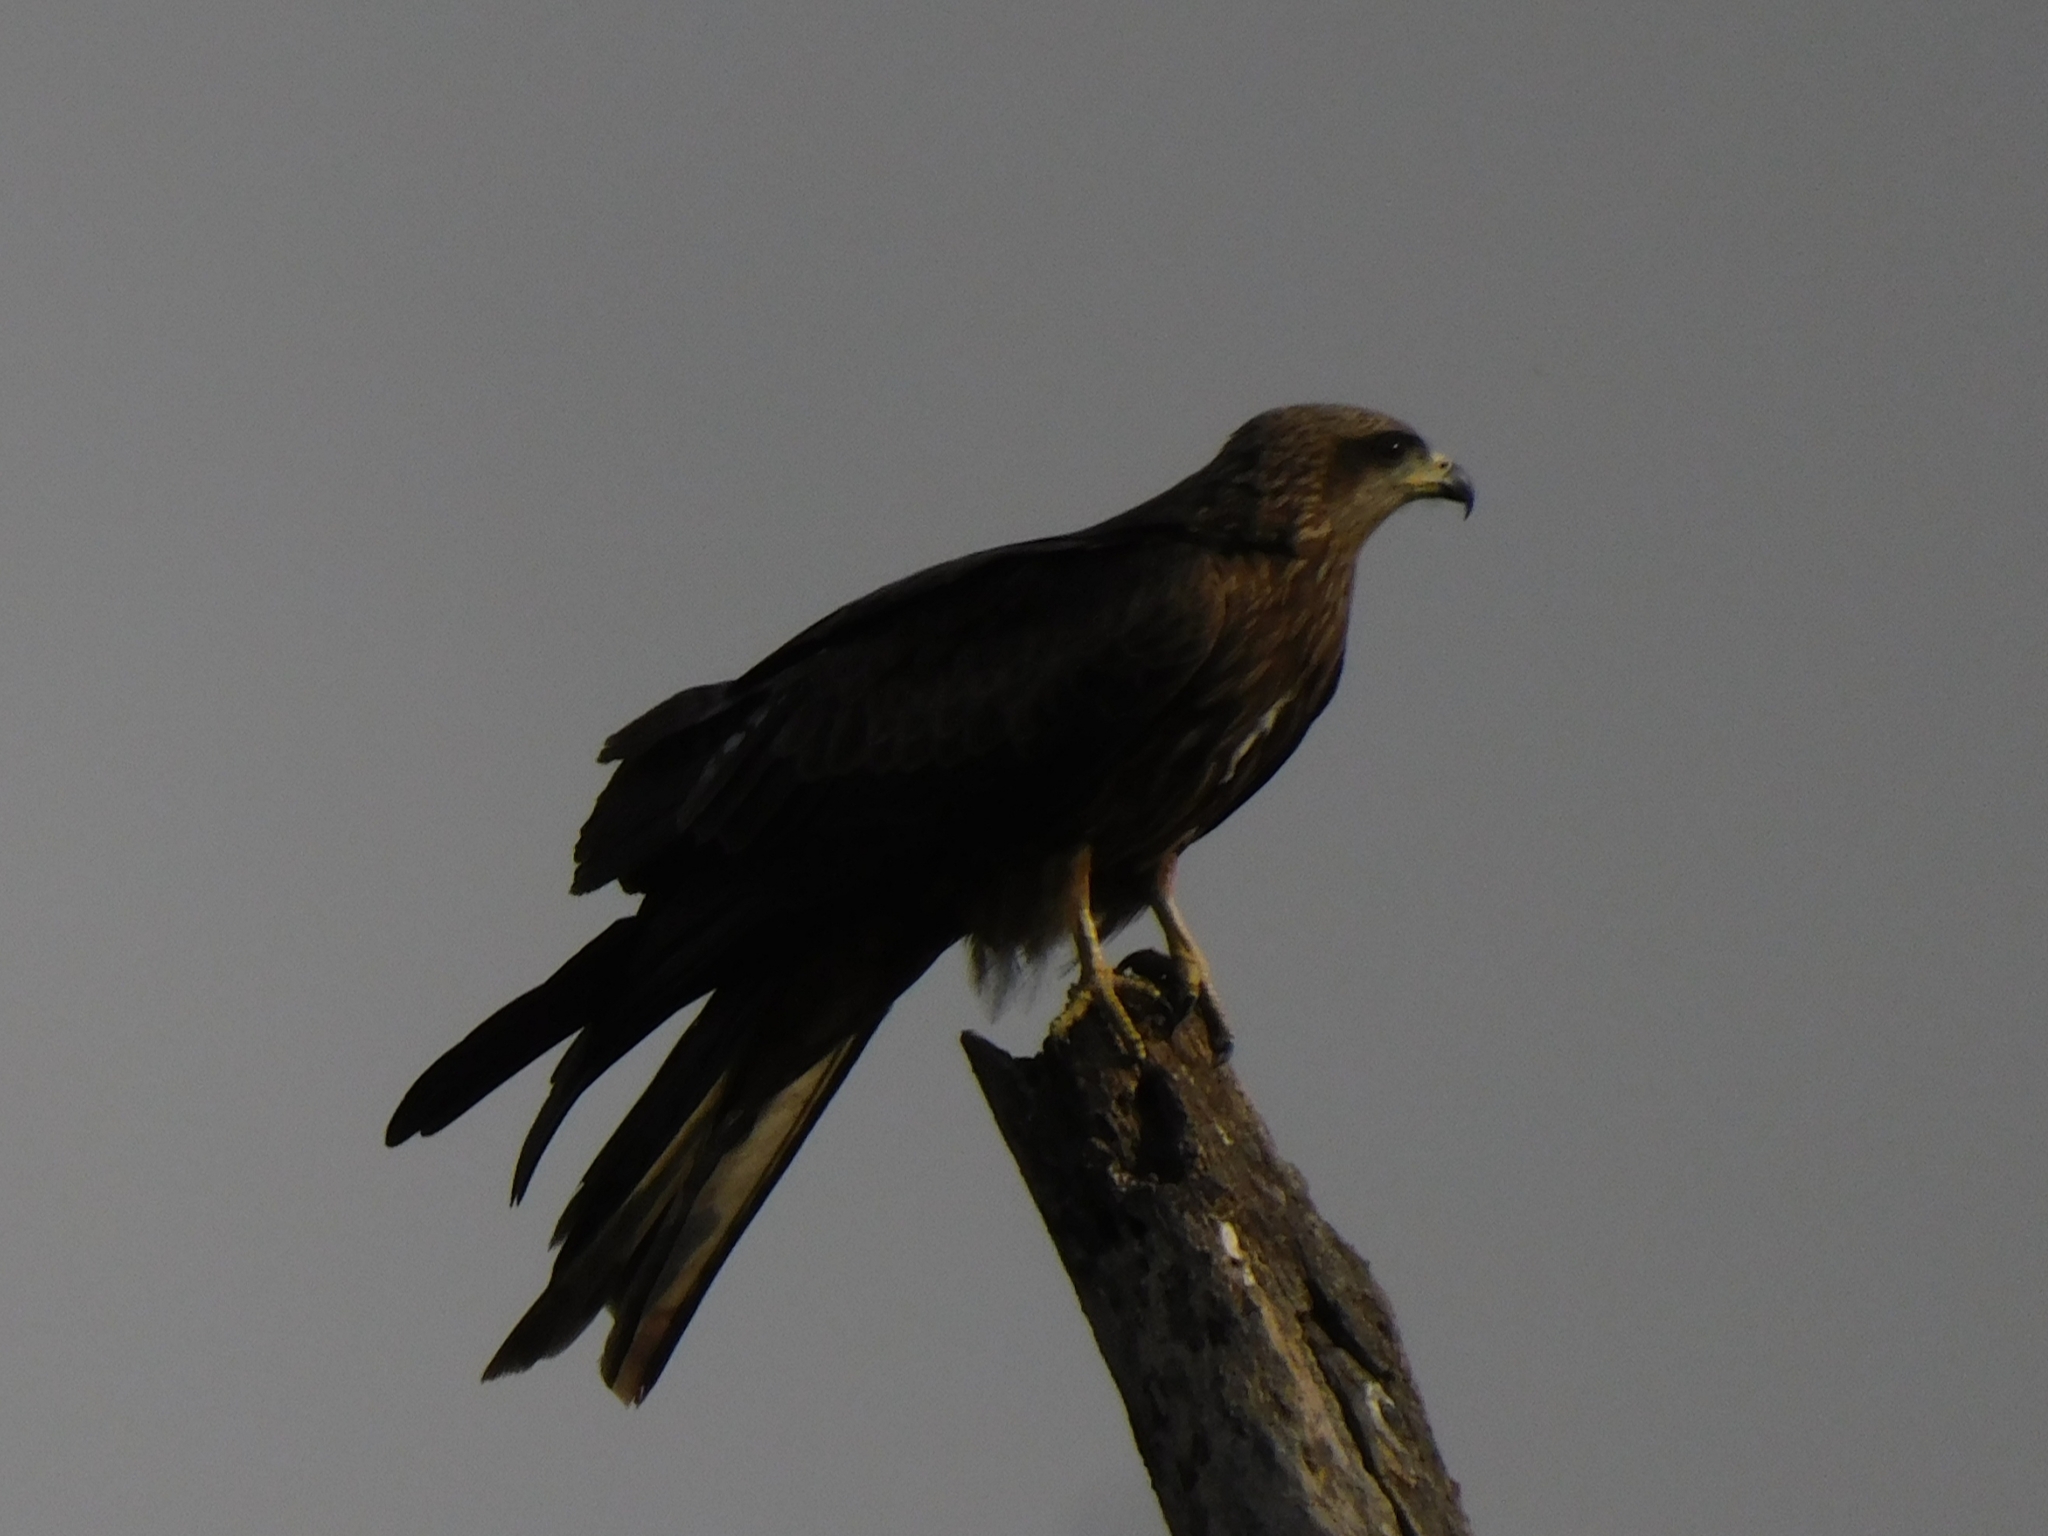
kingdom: Animalia
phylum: Chordata
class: Aves
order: Accipitriformes
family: Accipitridae
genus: Milvus
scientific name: Milvus migrans
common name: Black kite
